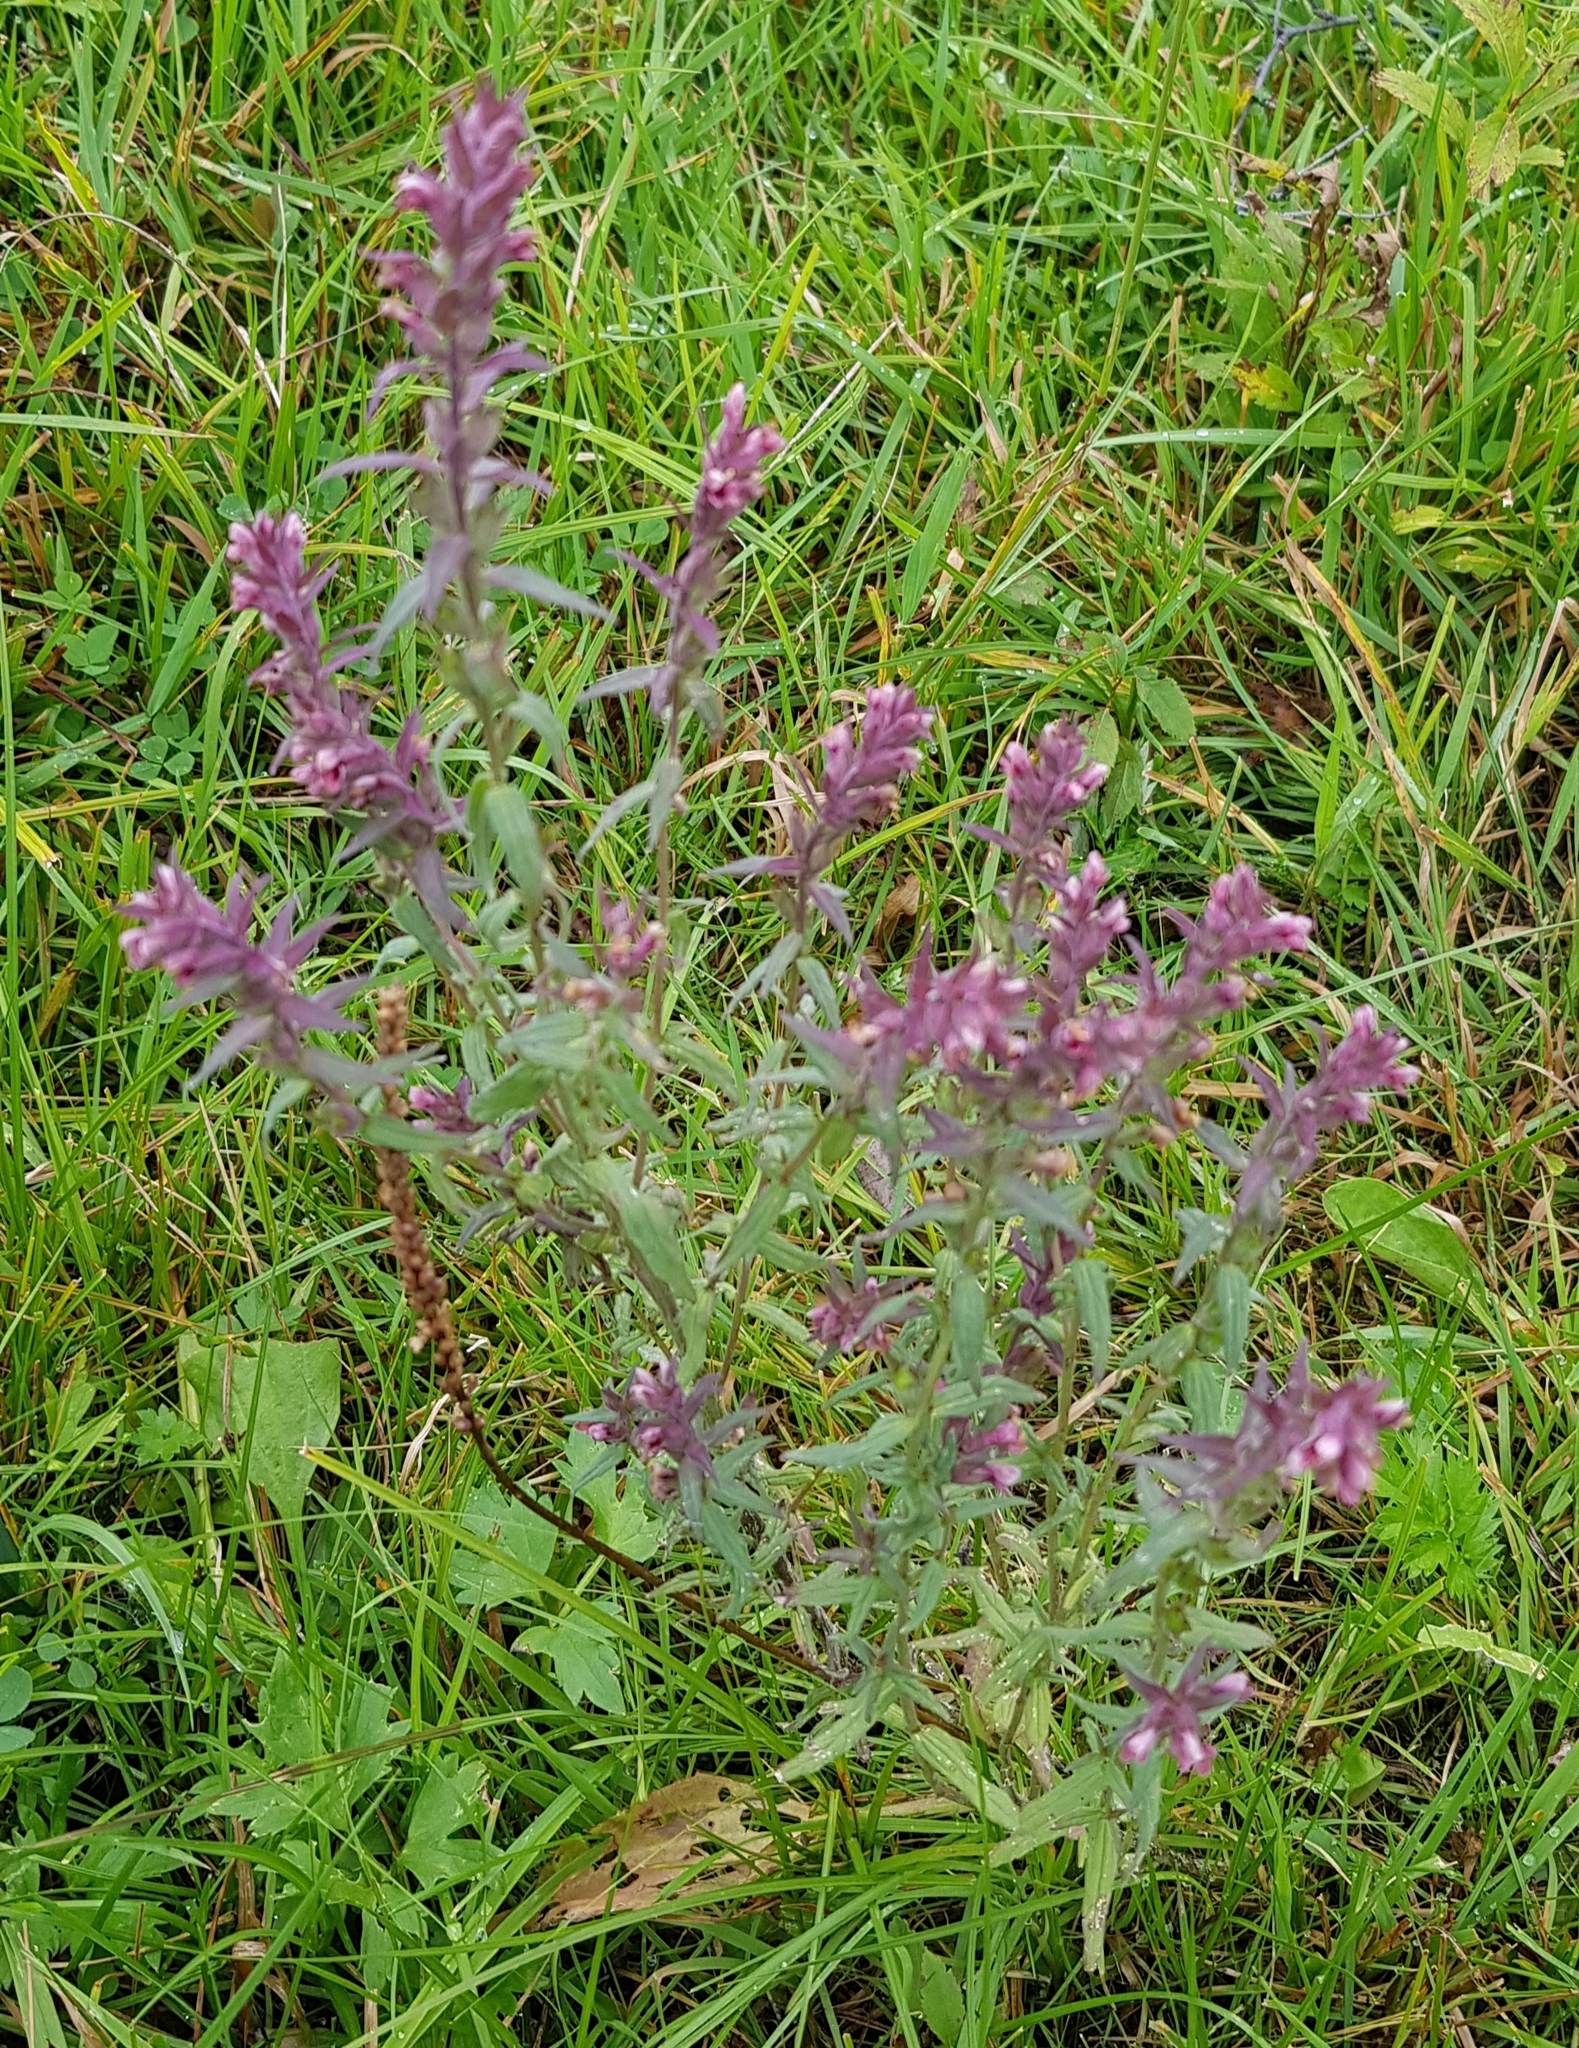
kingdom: Plantae
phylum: Tracheophyta
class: Magnoliopsida
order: Lamiales
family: Orobanchaceae
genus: Odontites
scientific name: Odontites vulgaris
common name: Broomrape
